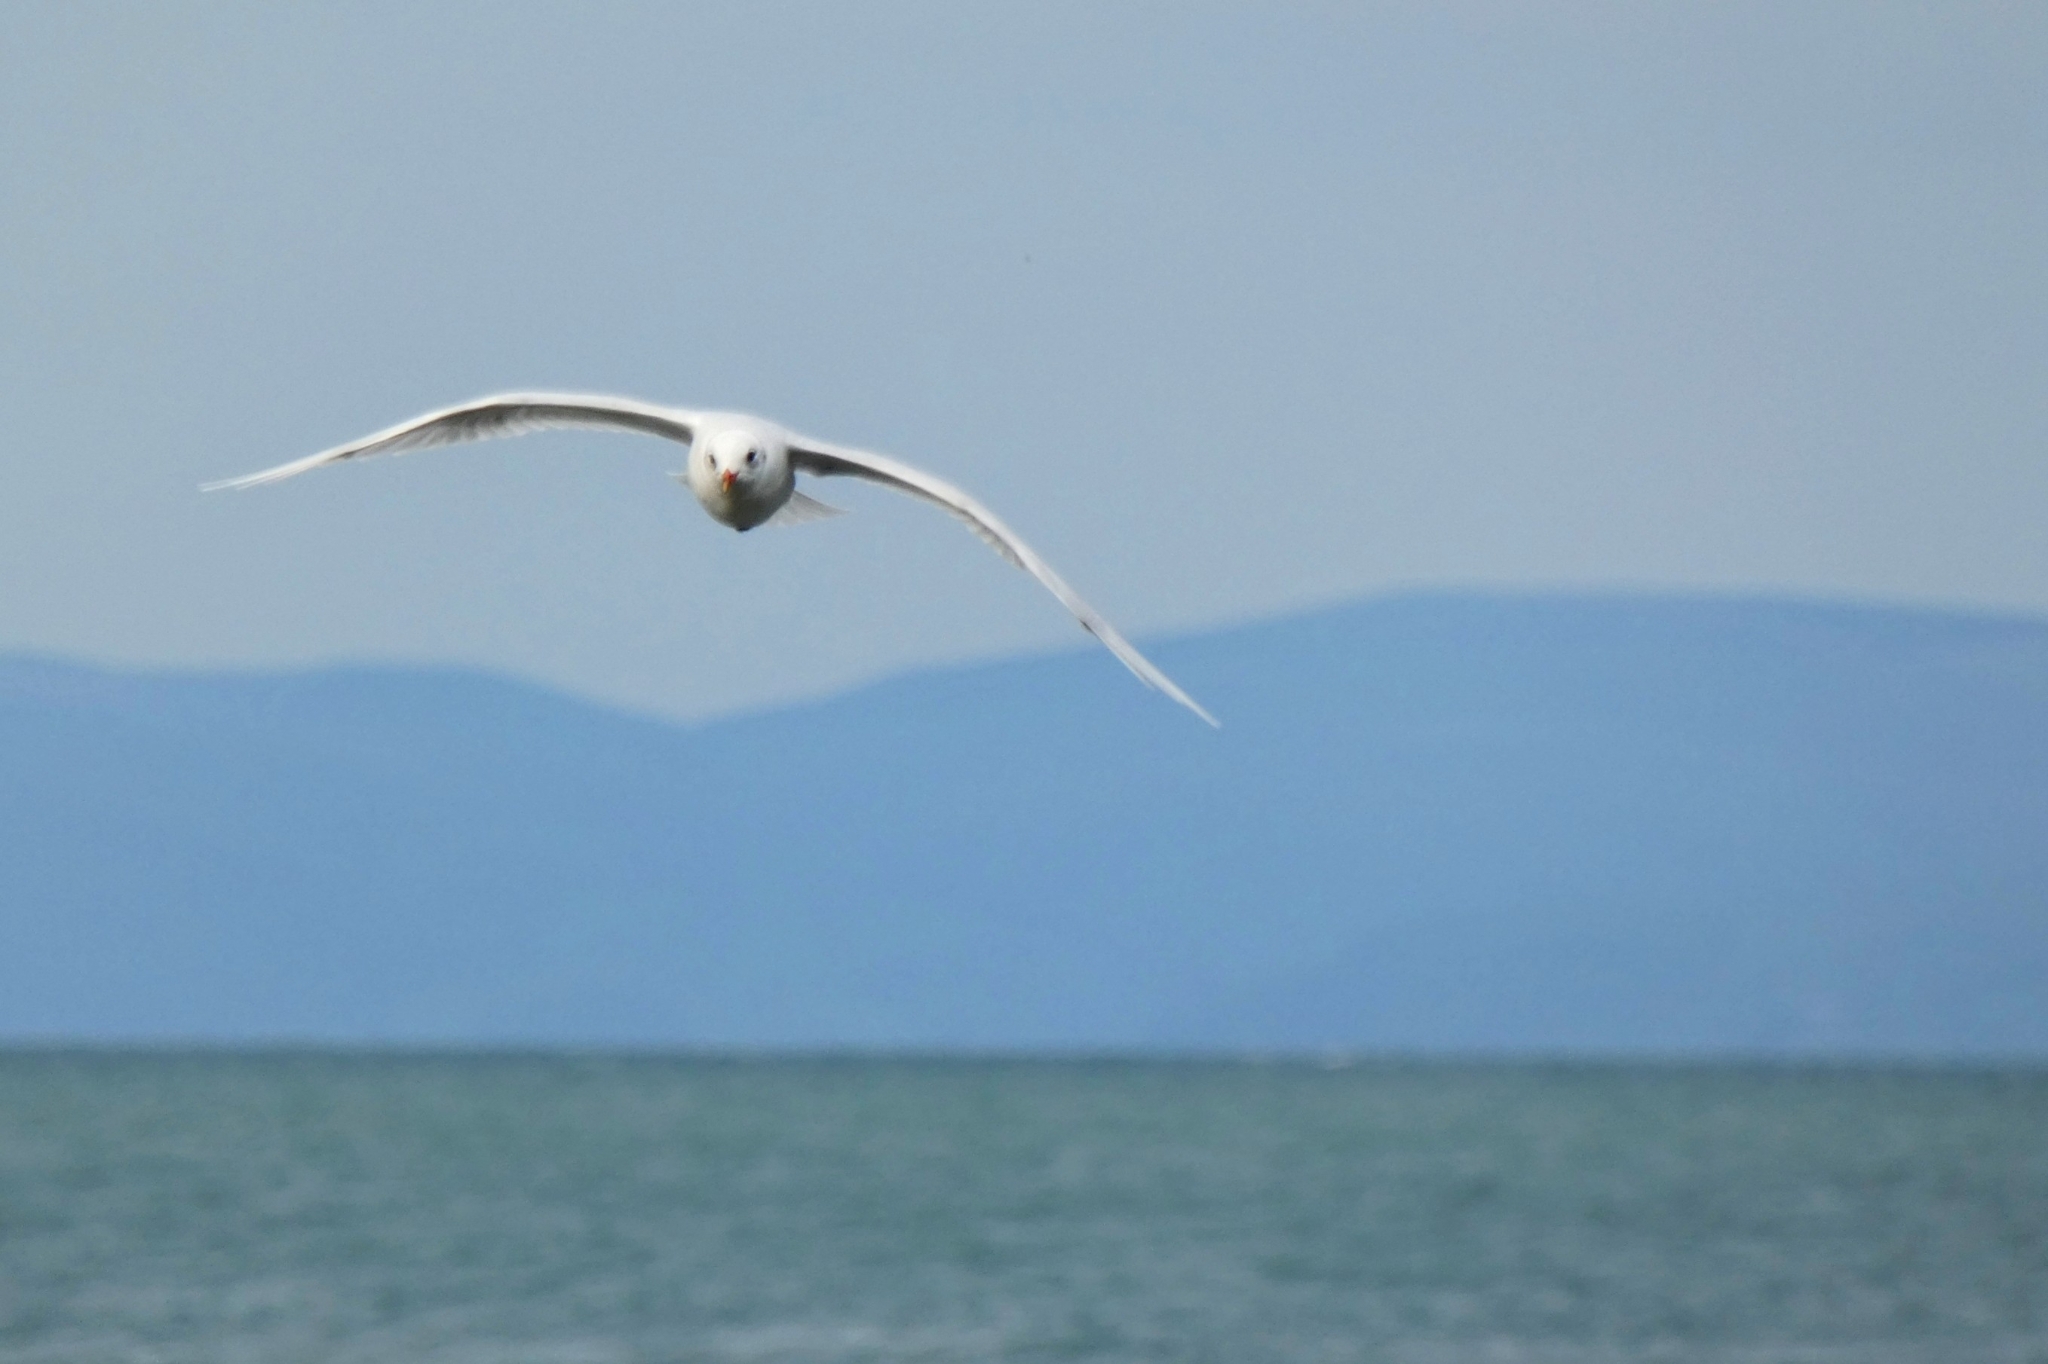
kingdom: Animalia
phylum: Chordata
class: Aves
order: Charadriiformes
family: Laridae
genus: Chroicocephalus
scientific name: Chroicocephalus ridibundus
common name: Black-headed gull
